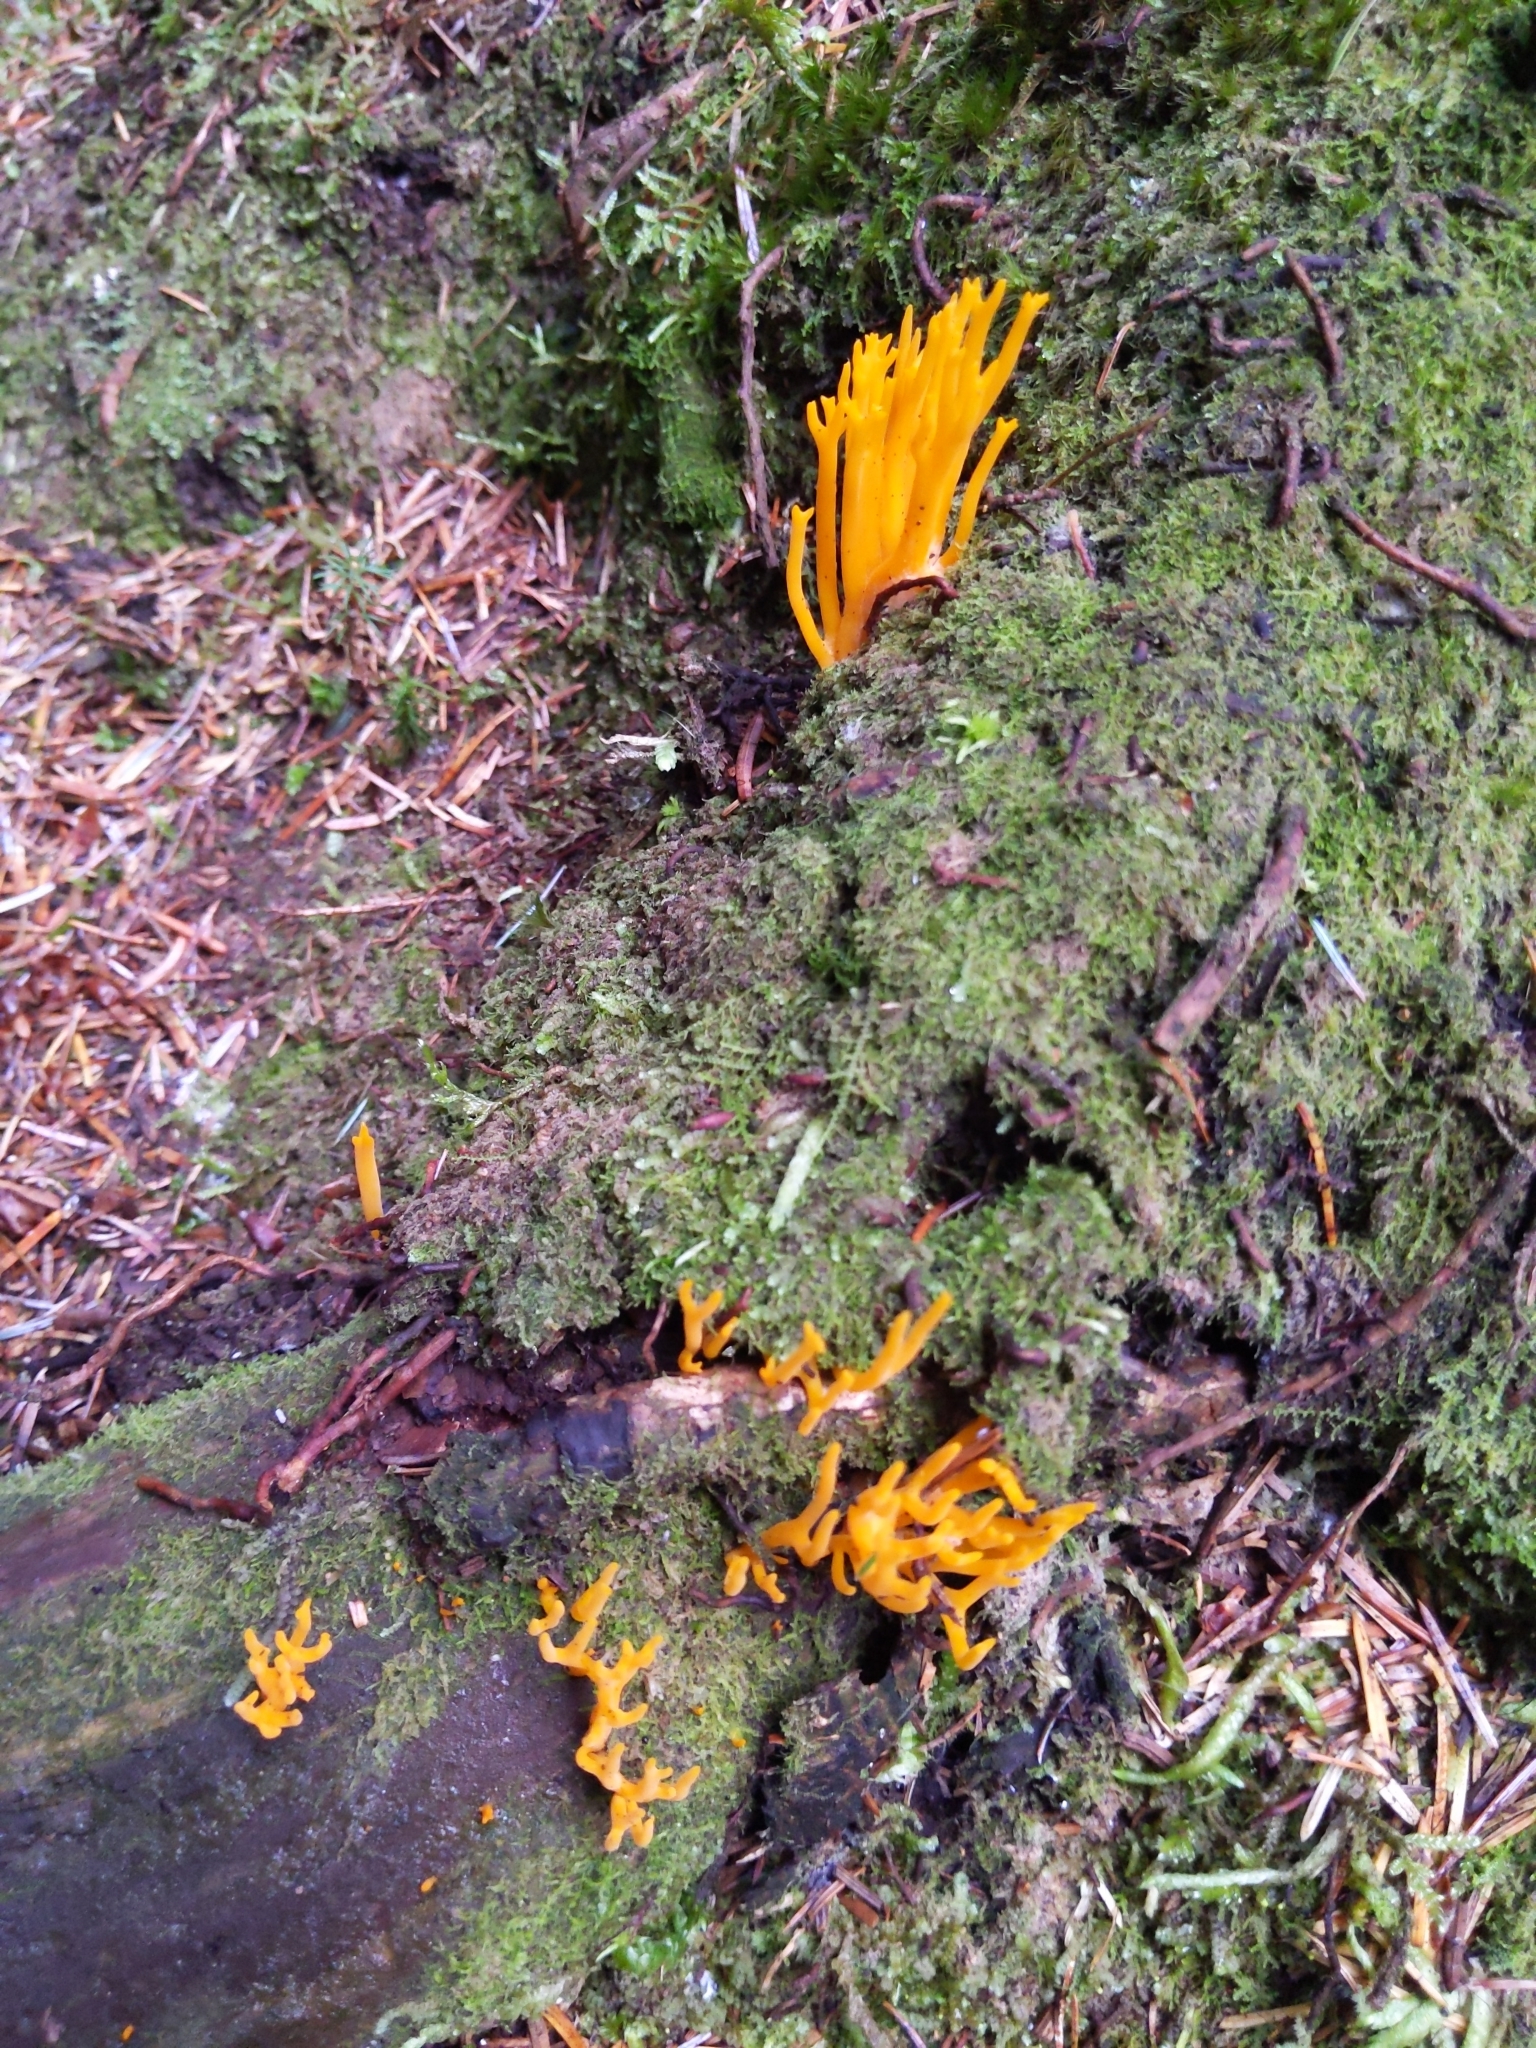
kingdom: Fungi
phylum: Basidiomycota
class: Dacrymycetes
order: Dacrymycetales
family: Dacrymycetaceae
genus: Calocera
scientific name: Calocera viscosa
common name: Yellow stagshorn
